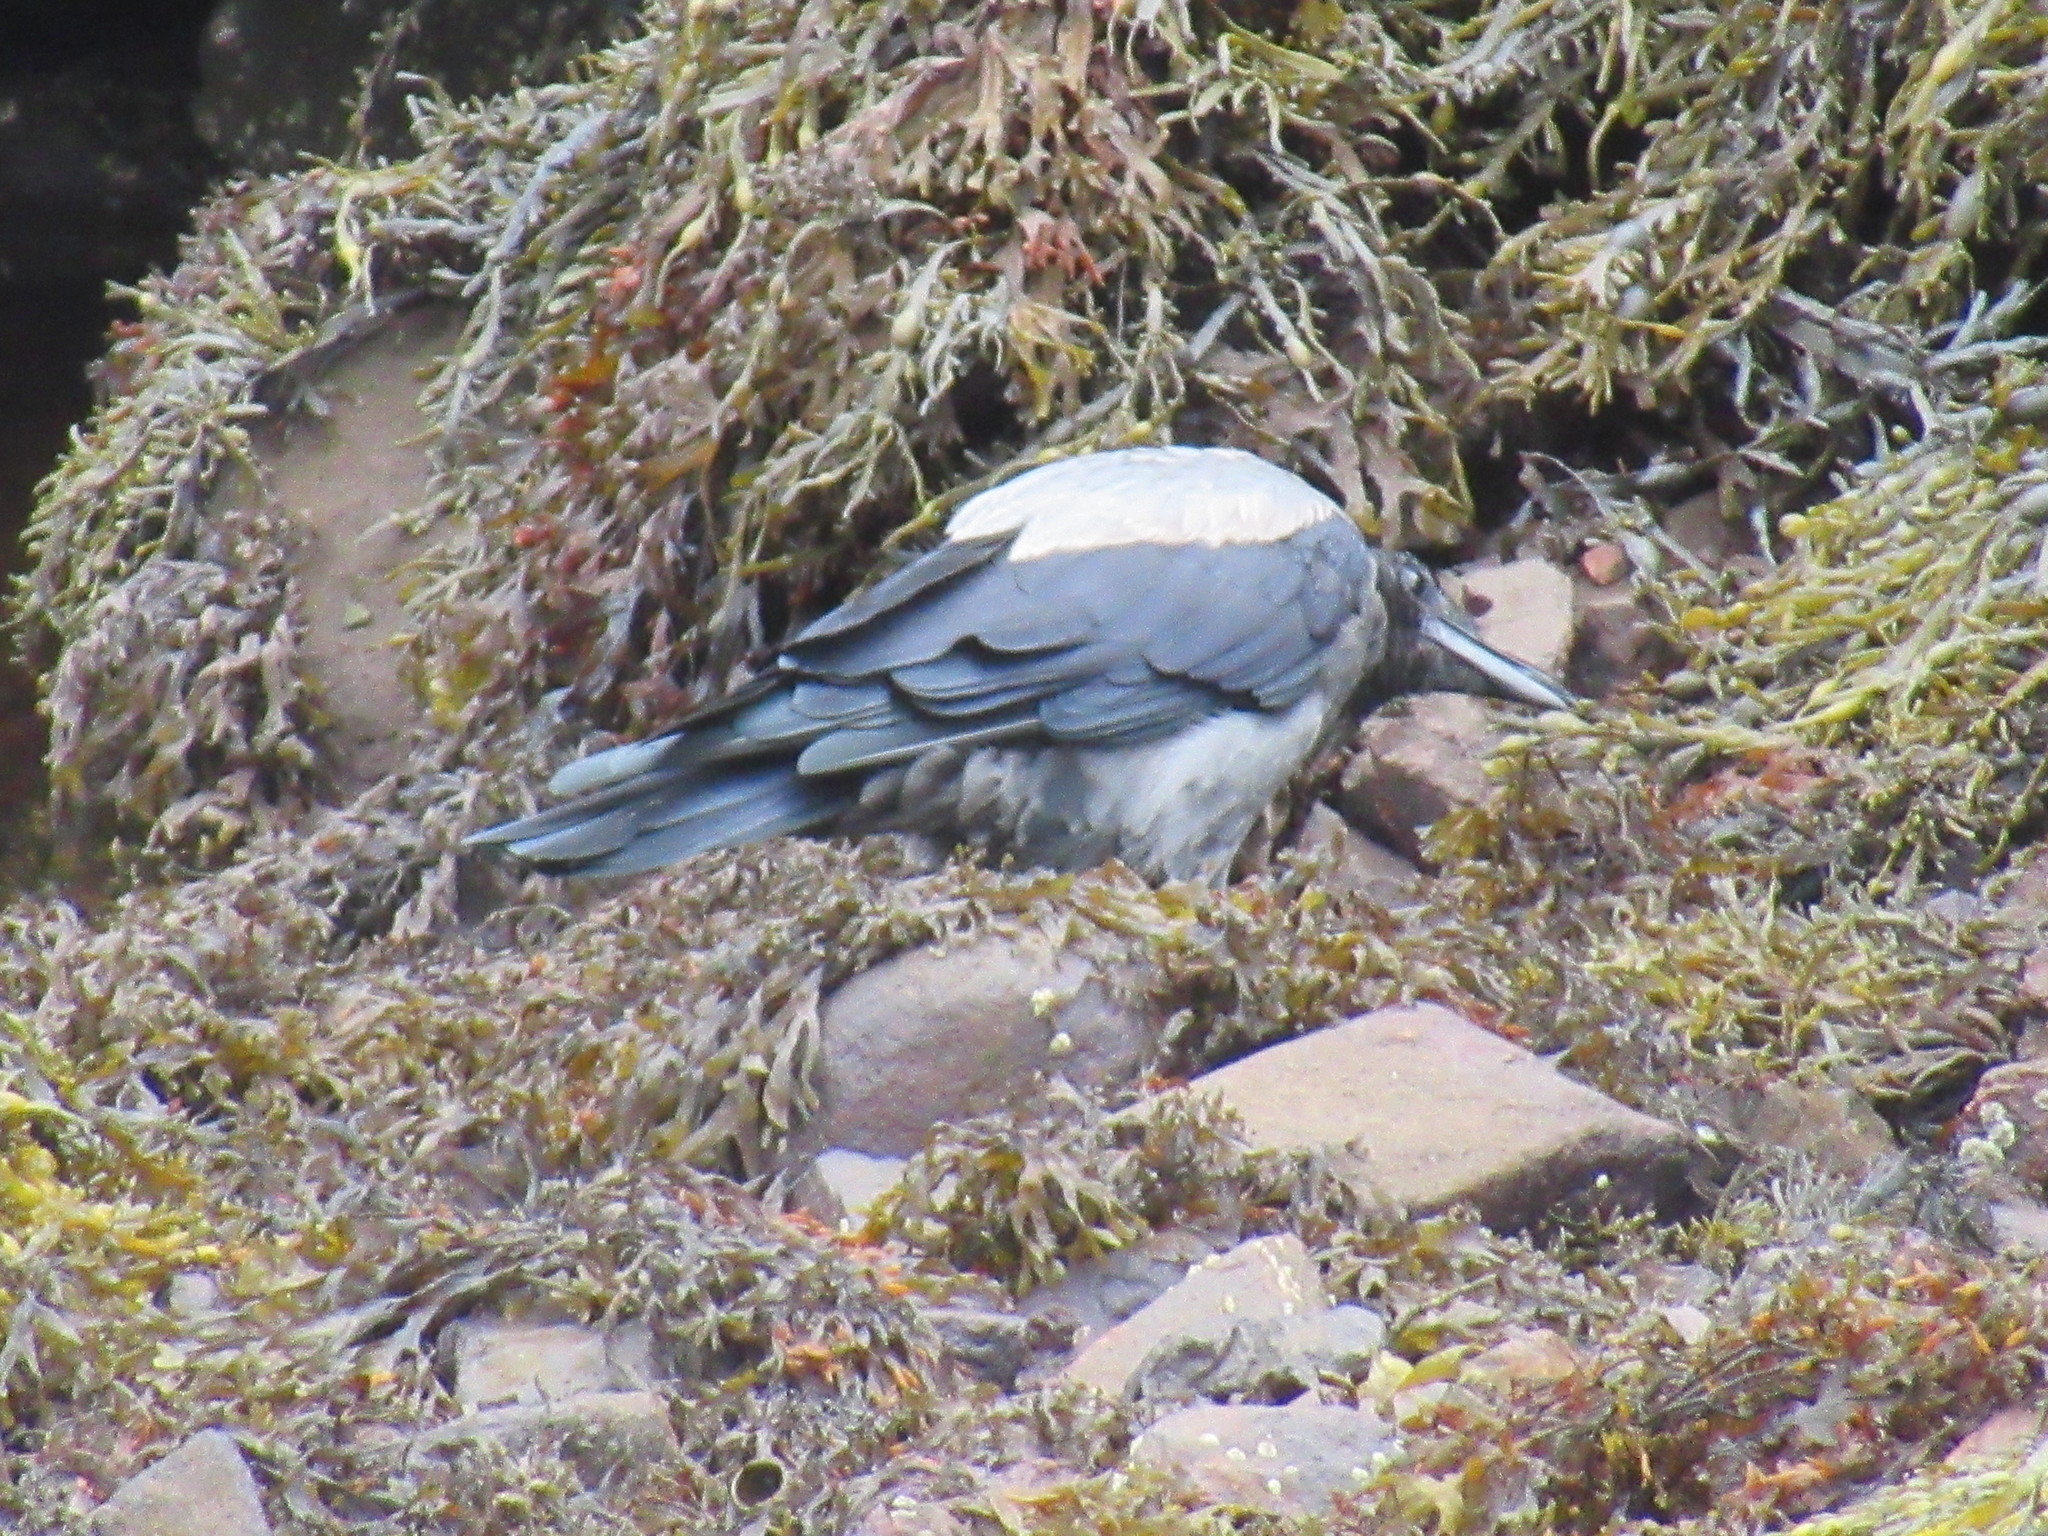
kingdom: Animalia
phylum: Chordata
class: Aves
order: Passeriformes
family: Corvidae
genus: Corvus
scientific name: Corvus cornix
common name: Hooded crow
